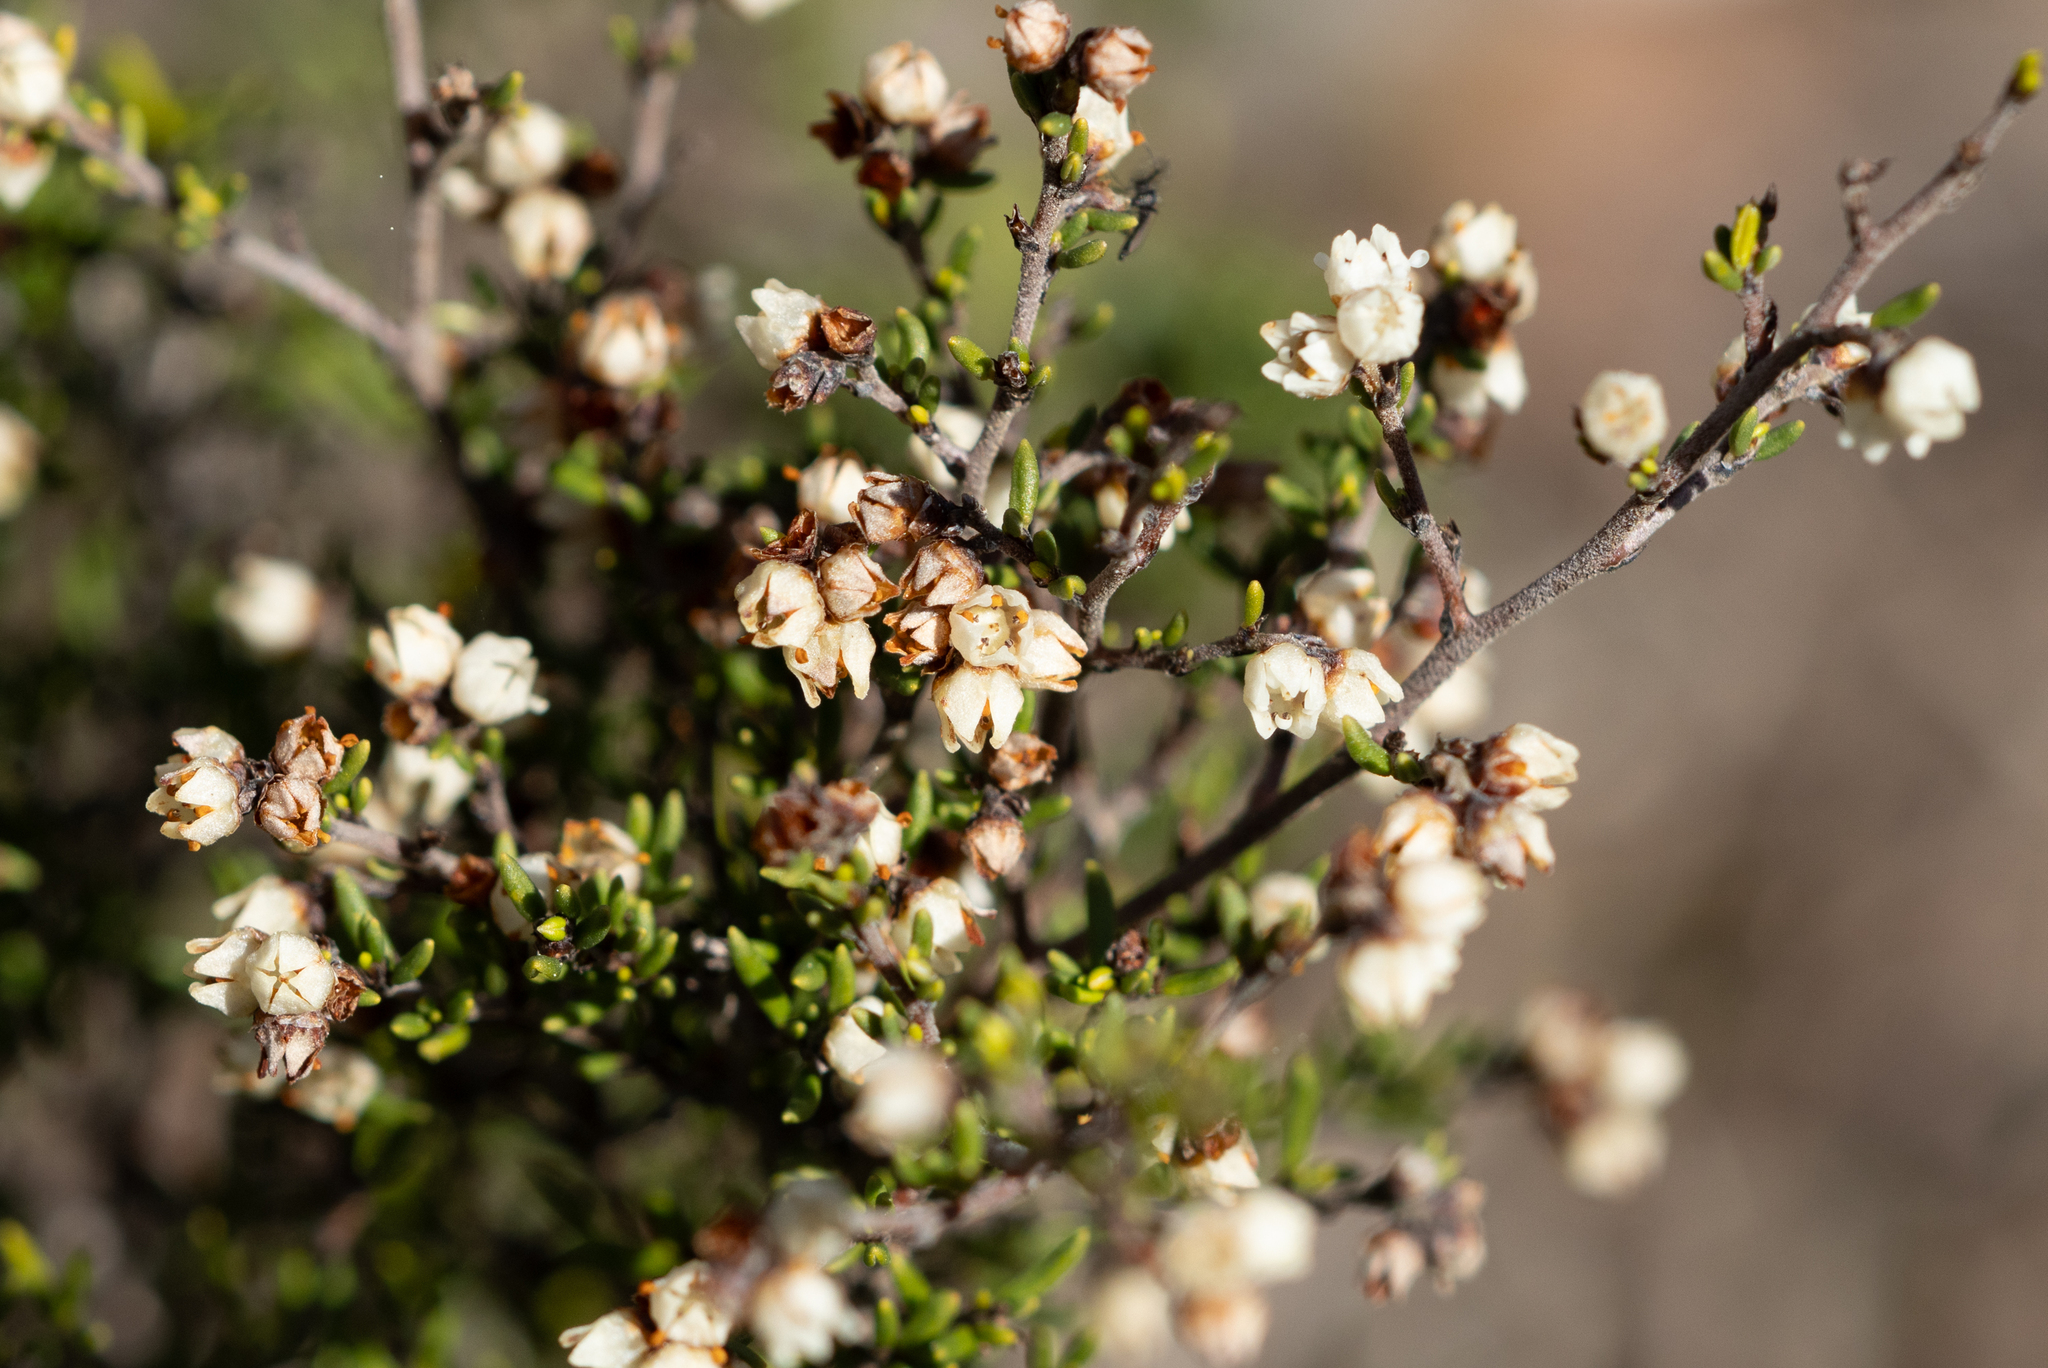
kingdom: Plantae
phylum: Tracheophyta
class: Magnoliopsida
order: Rosales
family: Rhamnaceae
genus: Cryptandra
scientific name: Cryptandra tomentosa
